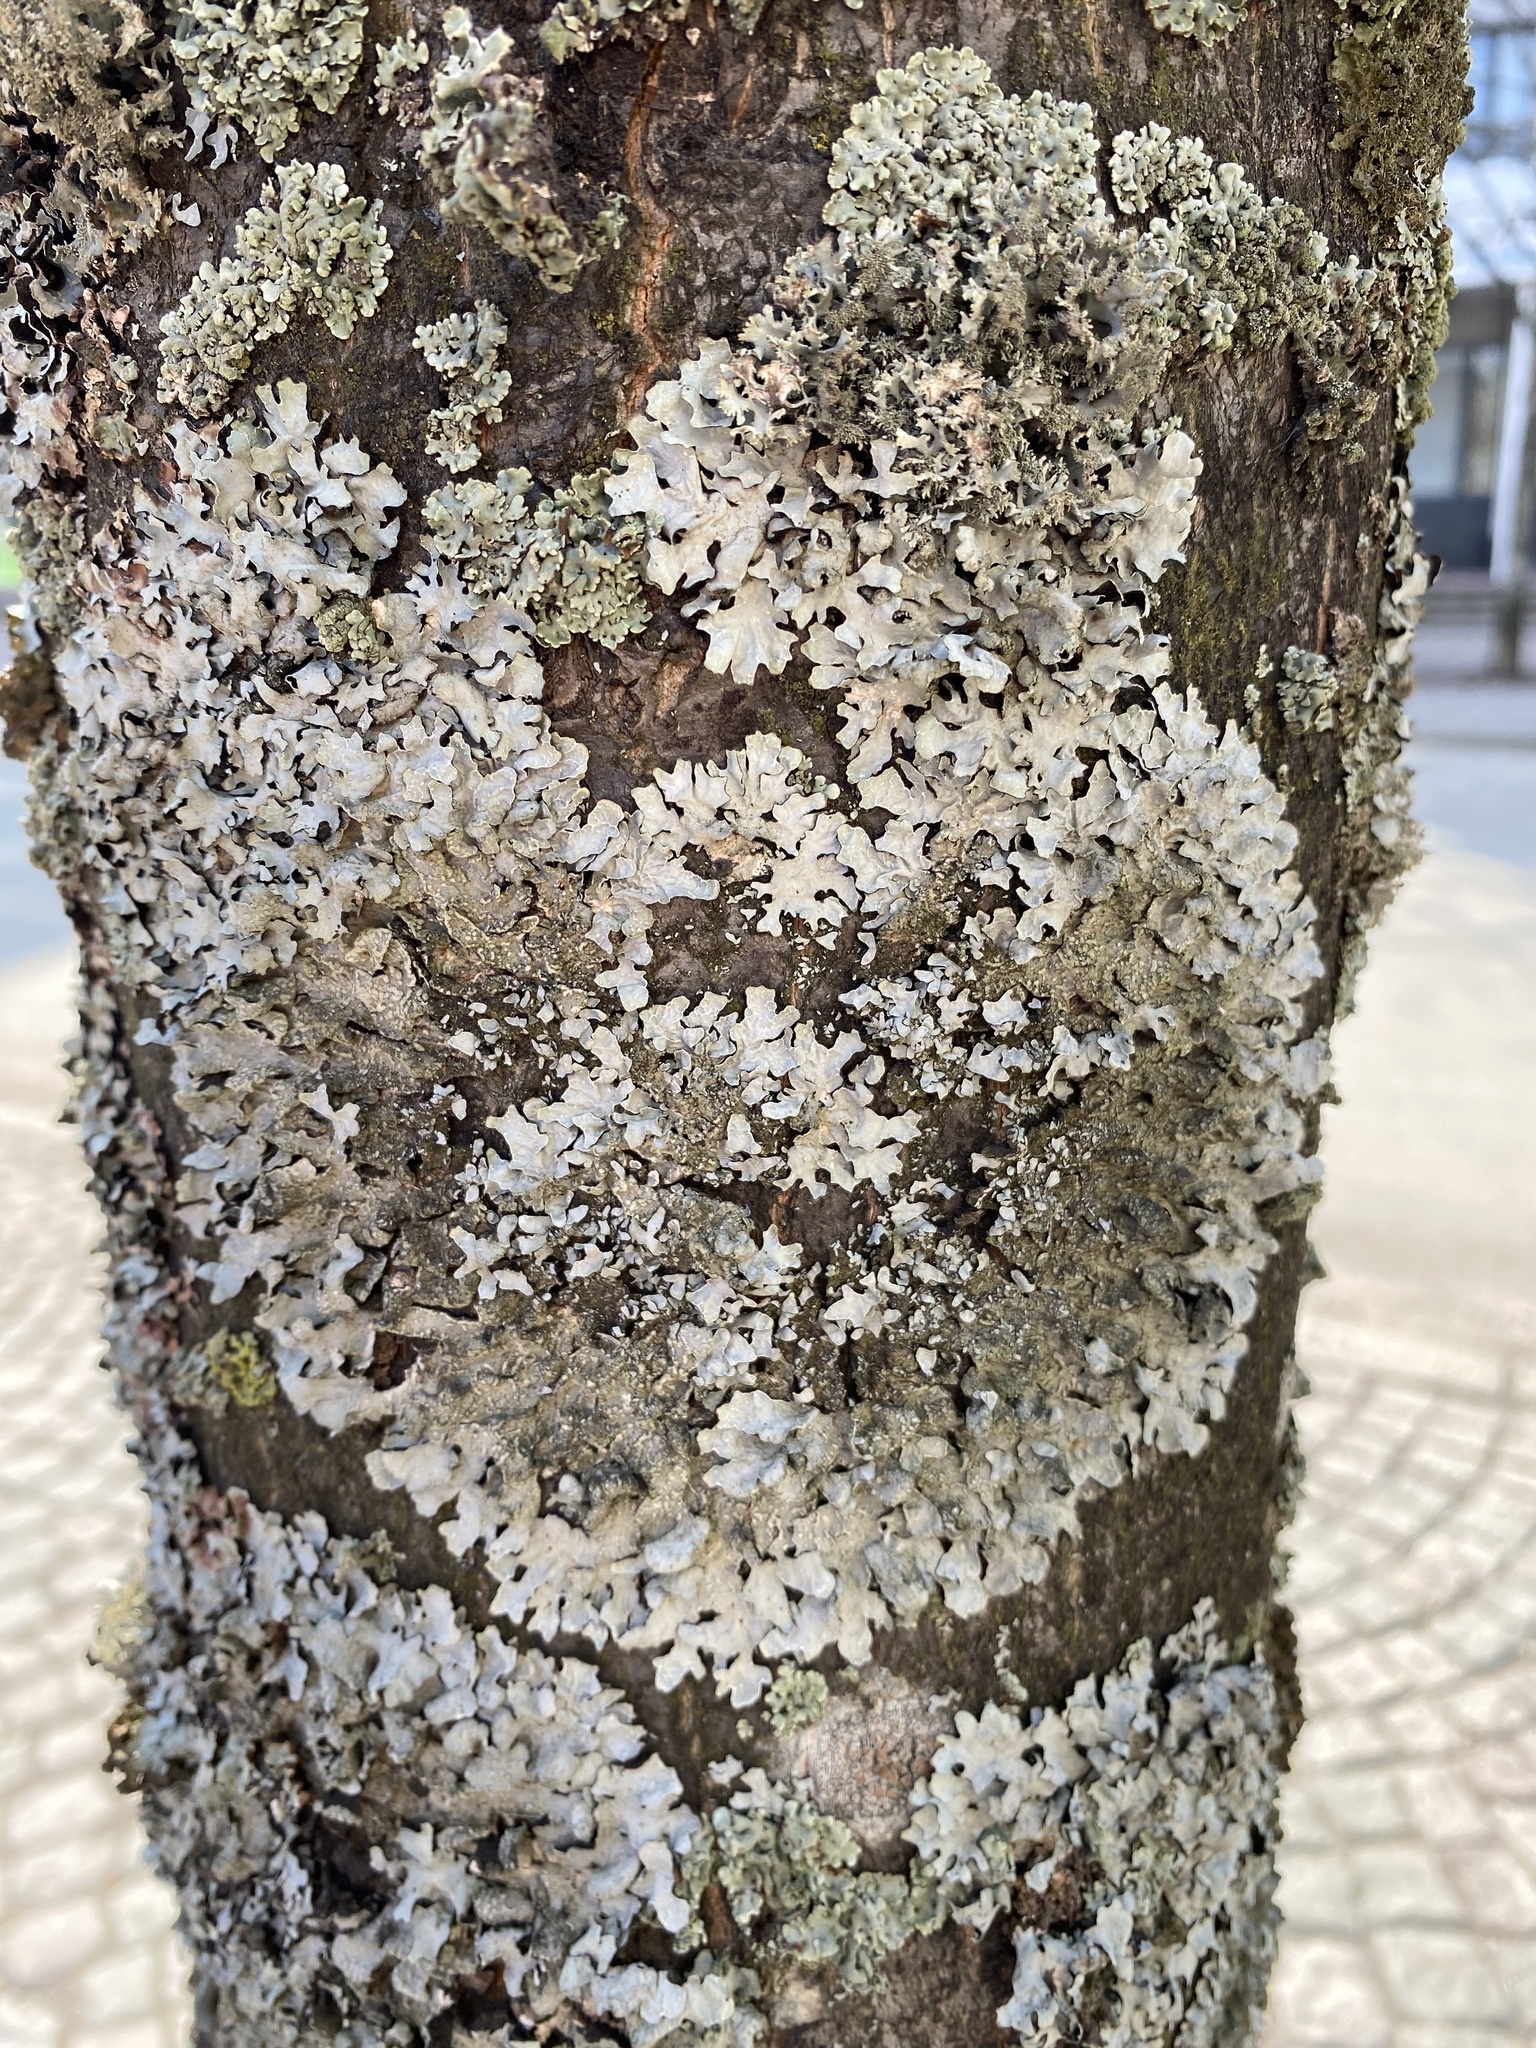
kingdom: Fungi
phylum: Ascomycota
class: Lecanoromycetes
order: Lecanorales
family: Parmeliaceae
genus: Parmelia
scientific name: Parmelia sulcata
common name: Netted shield lichen
